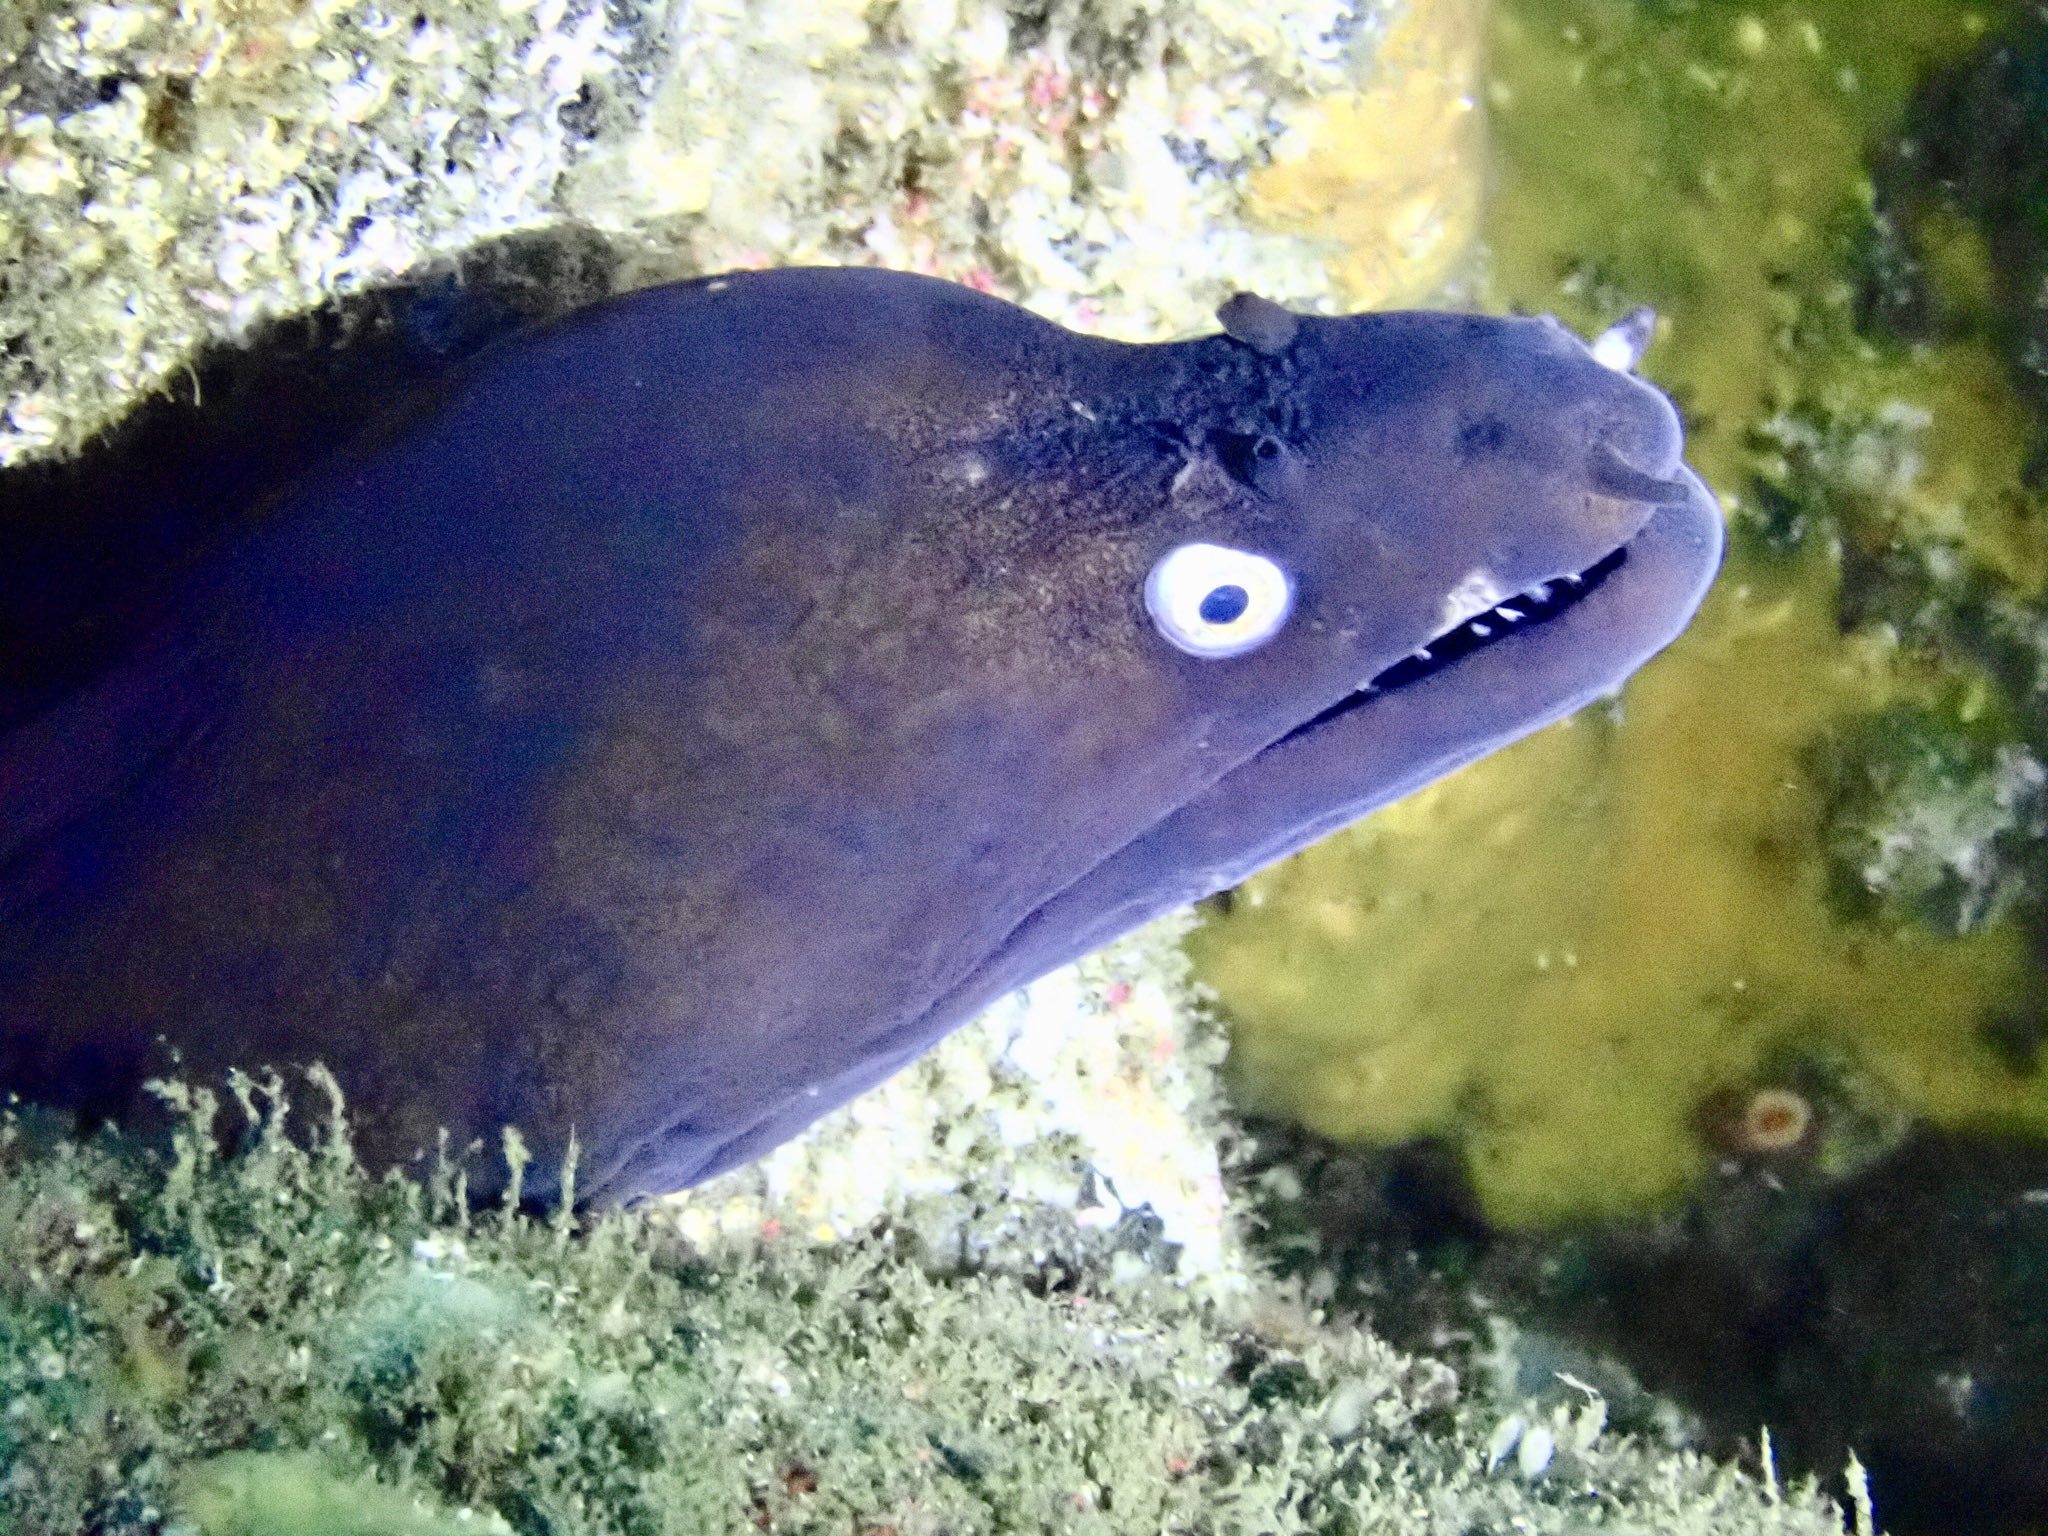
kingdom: Animalia
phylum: Chordata
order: Anguilliformes
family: Muraenidae
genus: Muraena
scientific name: Muraena augusti
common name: Mediterranean moray
